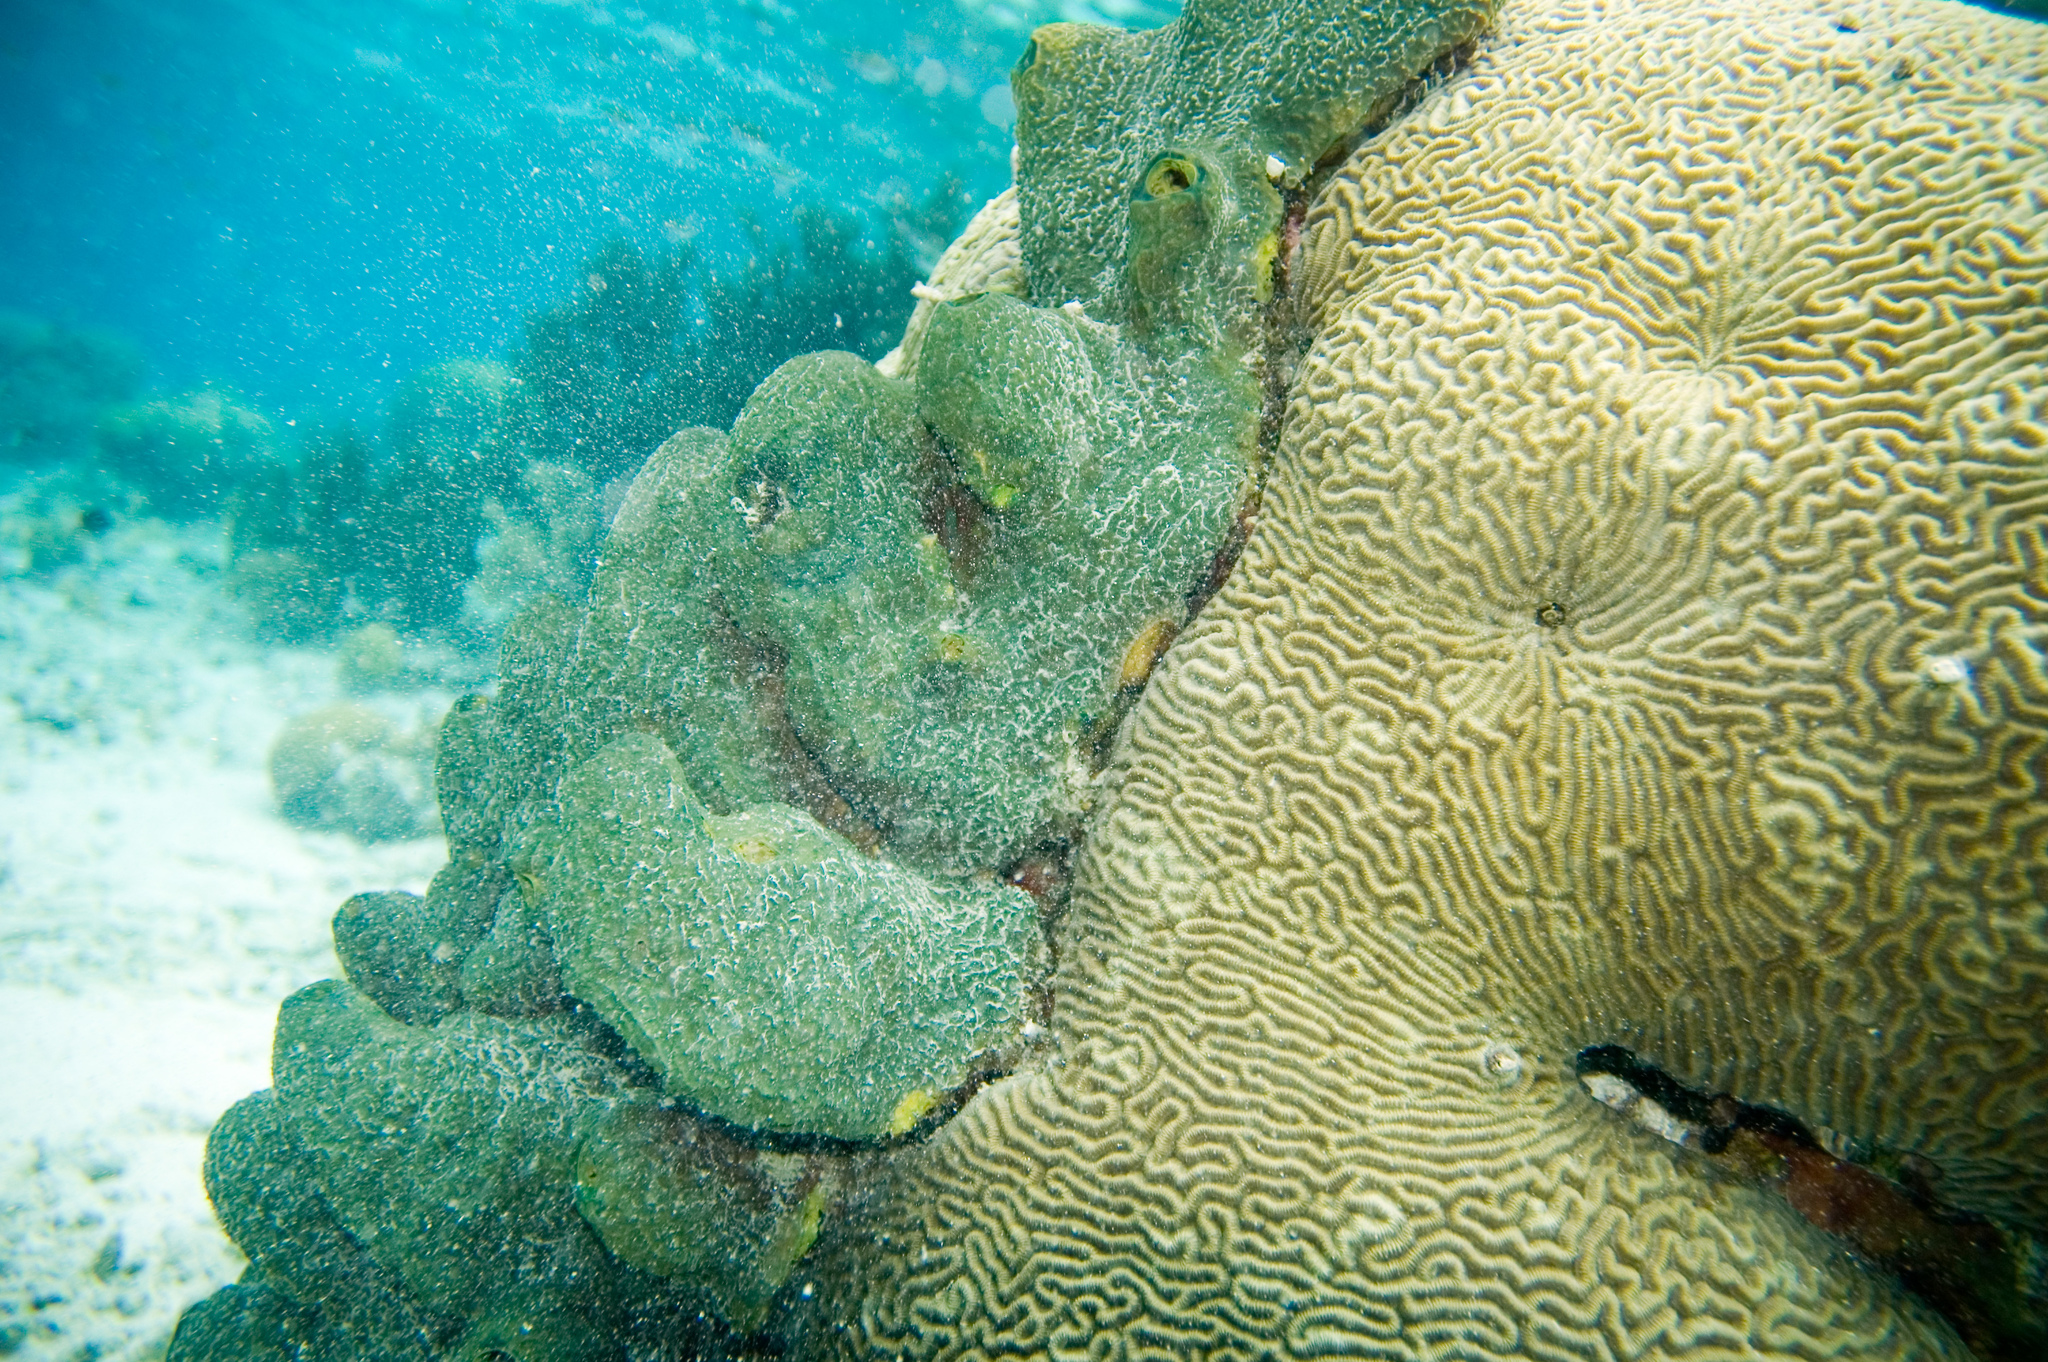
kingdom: Animalia
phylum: Porifera
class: Demospongiae
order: Verongiida
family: Aplysinidae
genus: Verongula
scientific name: Verongula reiswigi
